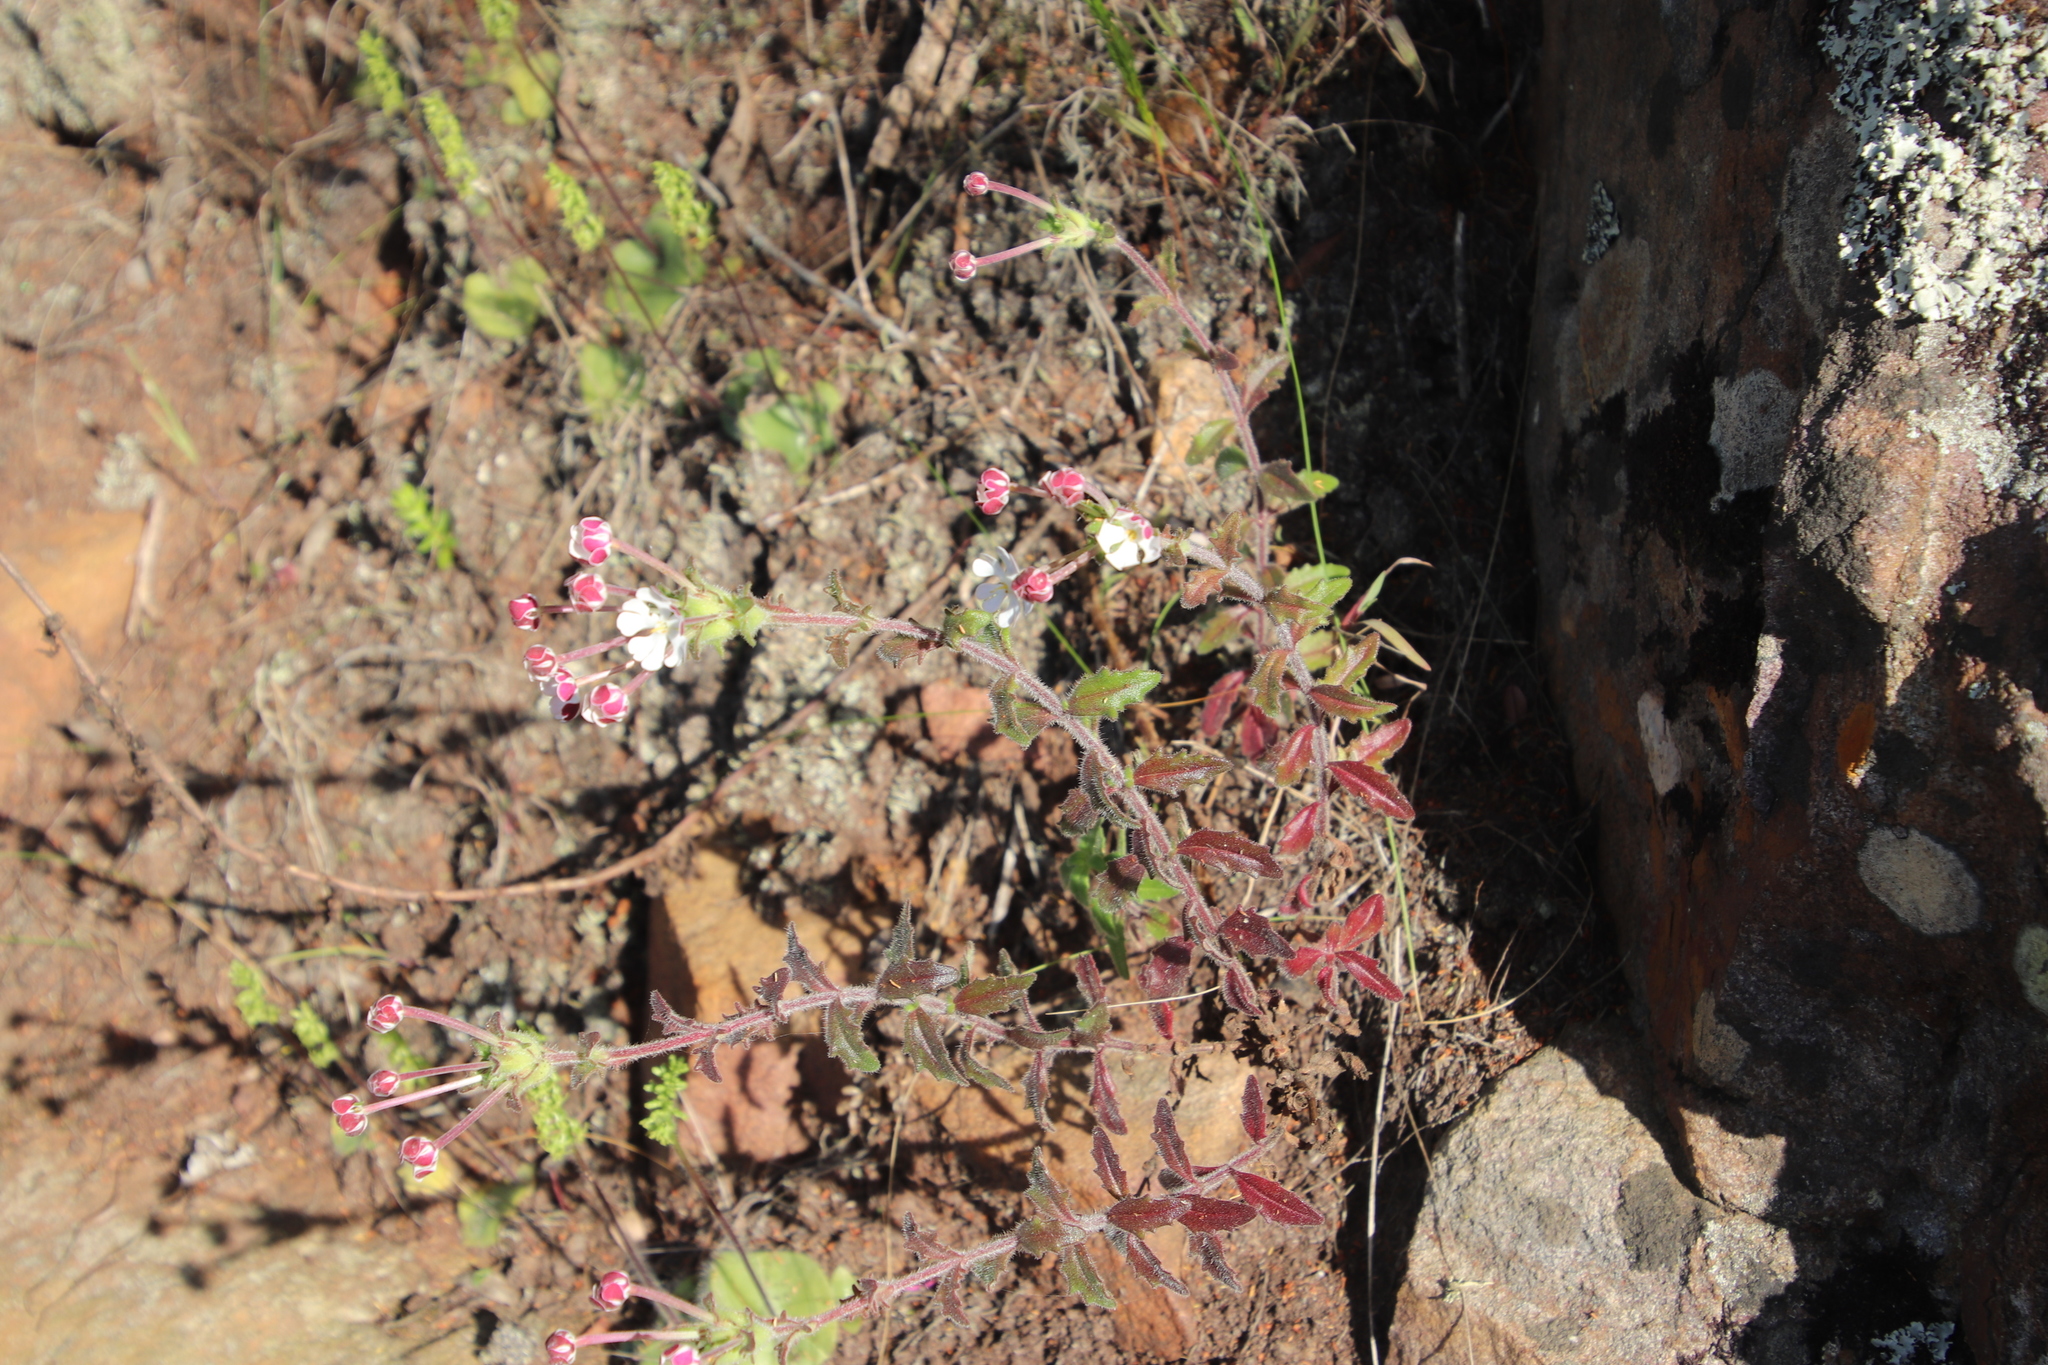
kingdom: Plantae
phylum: Tracheophyta
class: Magnoliopsida
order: Lamiales
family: Scrophulariaceae
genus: Zaluzianskya
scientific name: Zaluzianskya capensis
